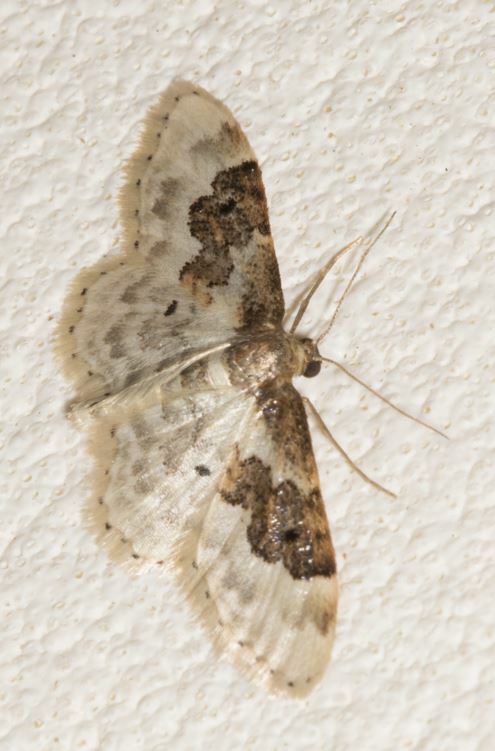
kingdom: Animalia
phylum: Arthropoda
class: Insecta
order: Lepidoptera
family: Geometridae
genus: Idaea
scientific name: Idaea rusticata
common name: Least carpet
